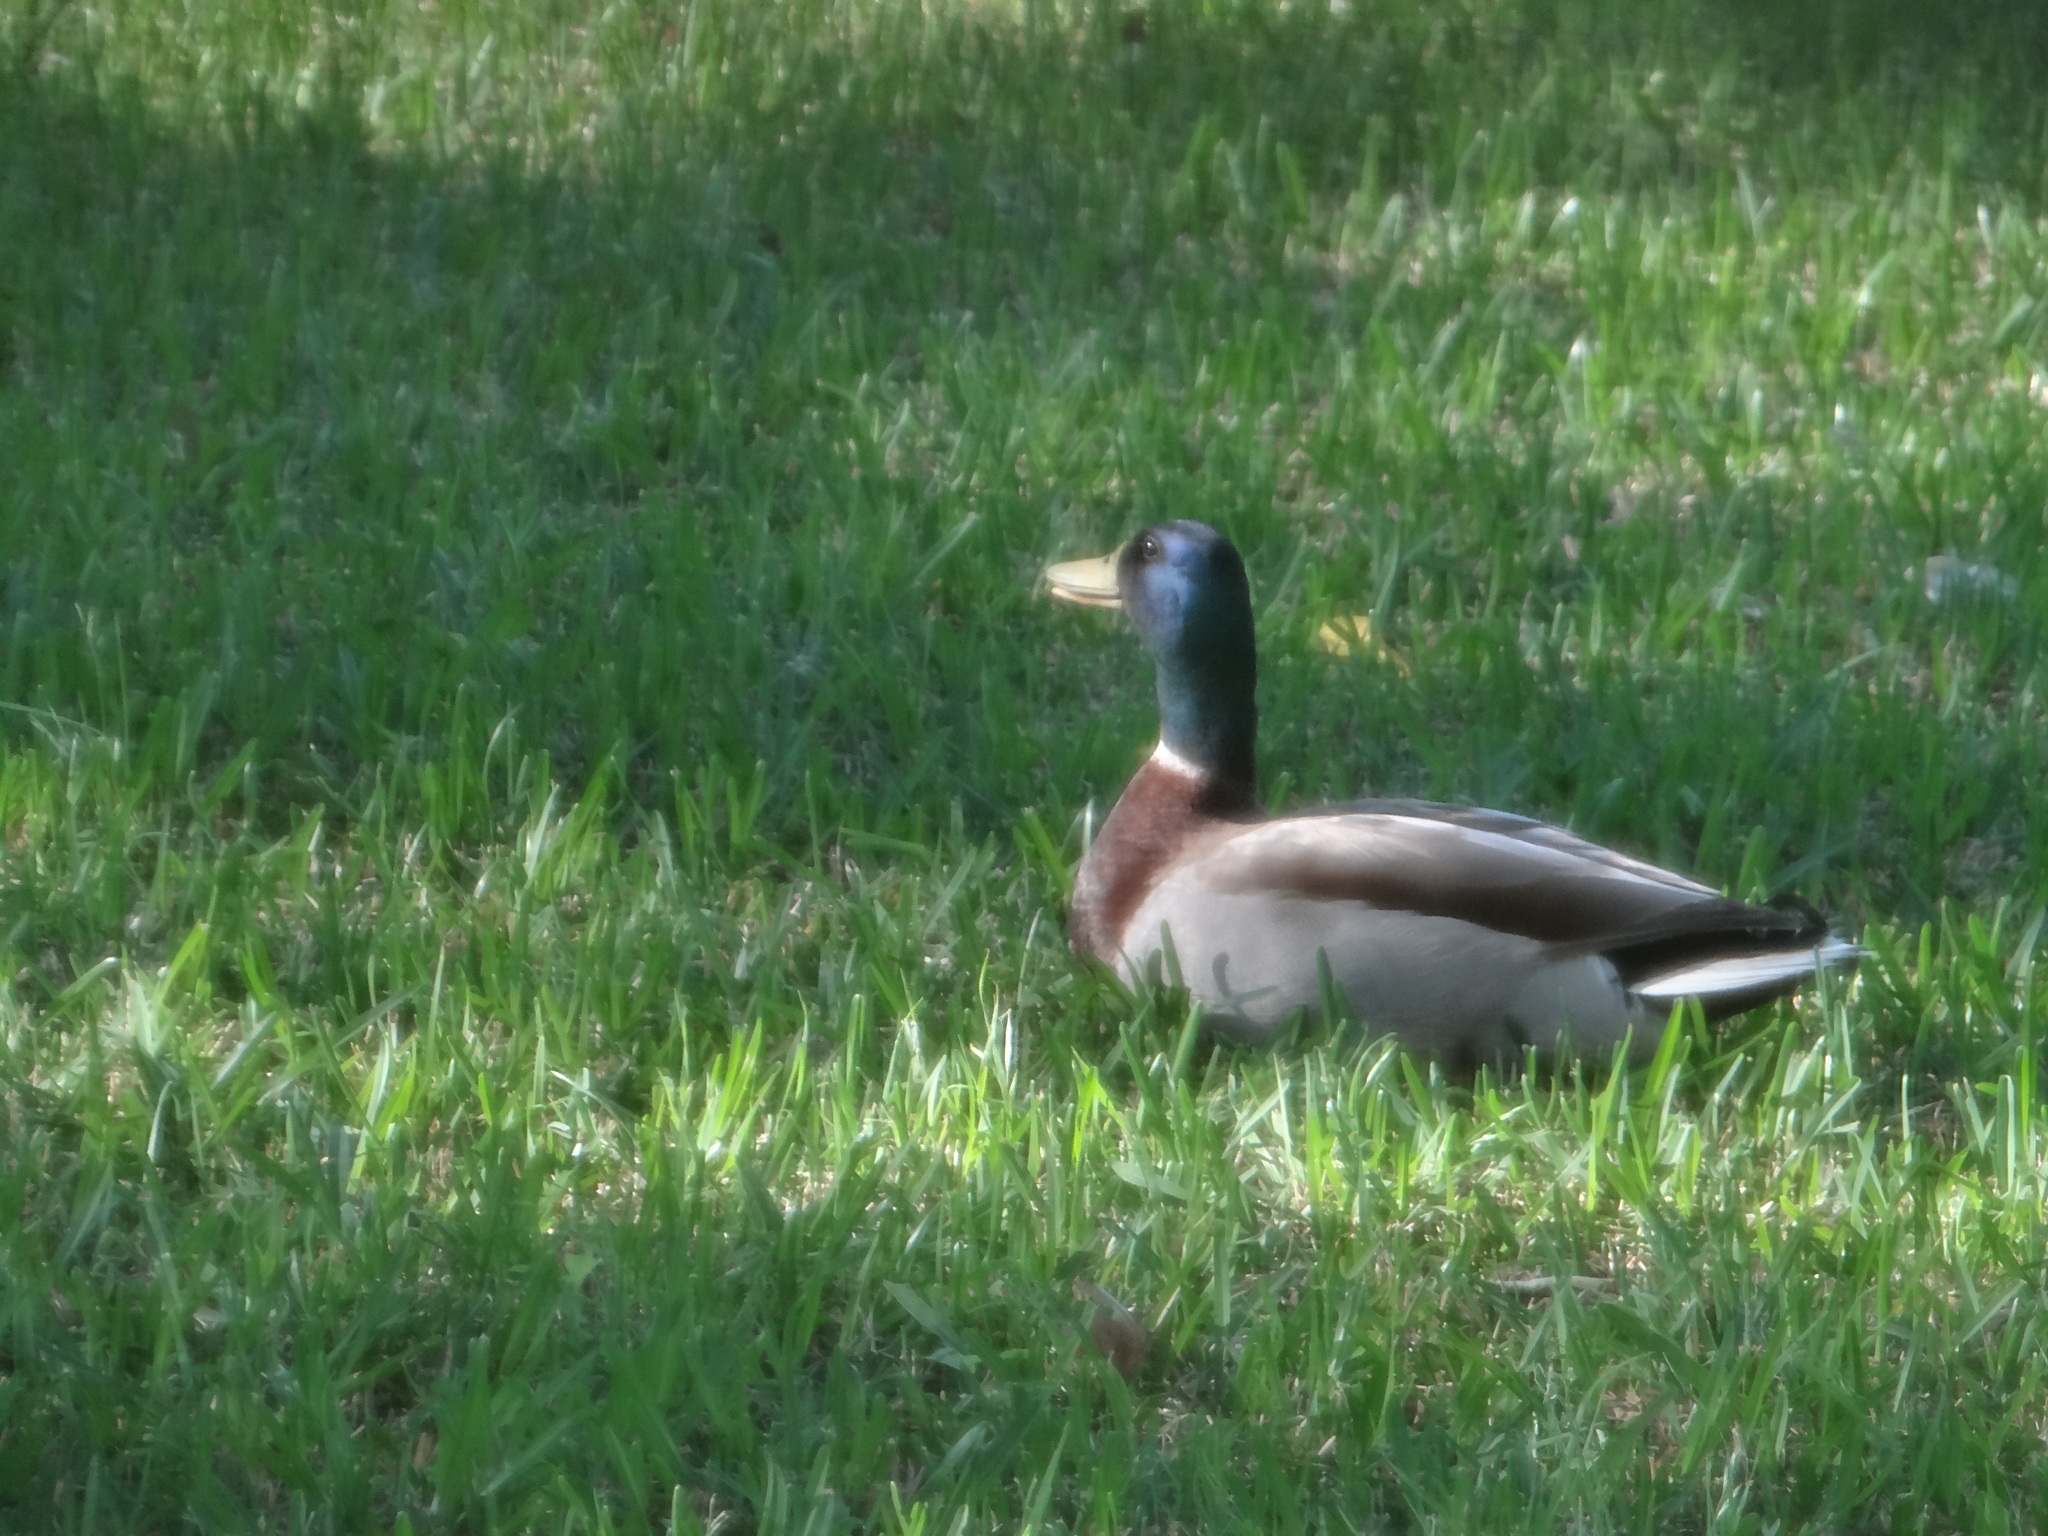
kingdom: Animalia
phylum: Chordata
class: Aves
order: Anseriformes
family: Anatidae
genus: Anas
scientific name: Anas platyrhynchos
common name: Mallard
